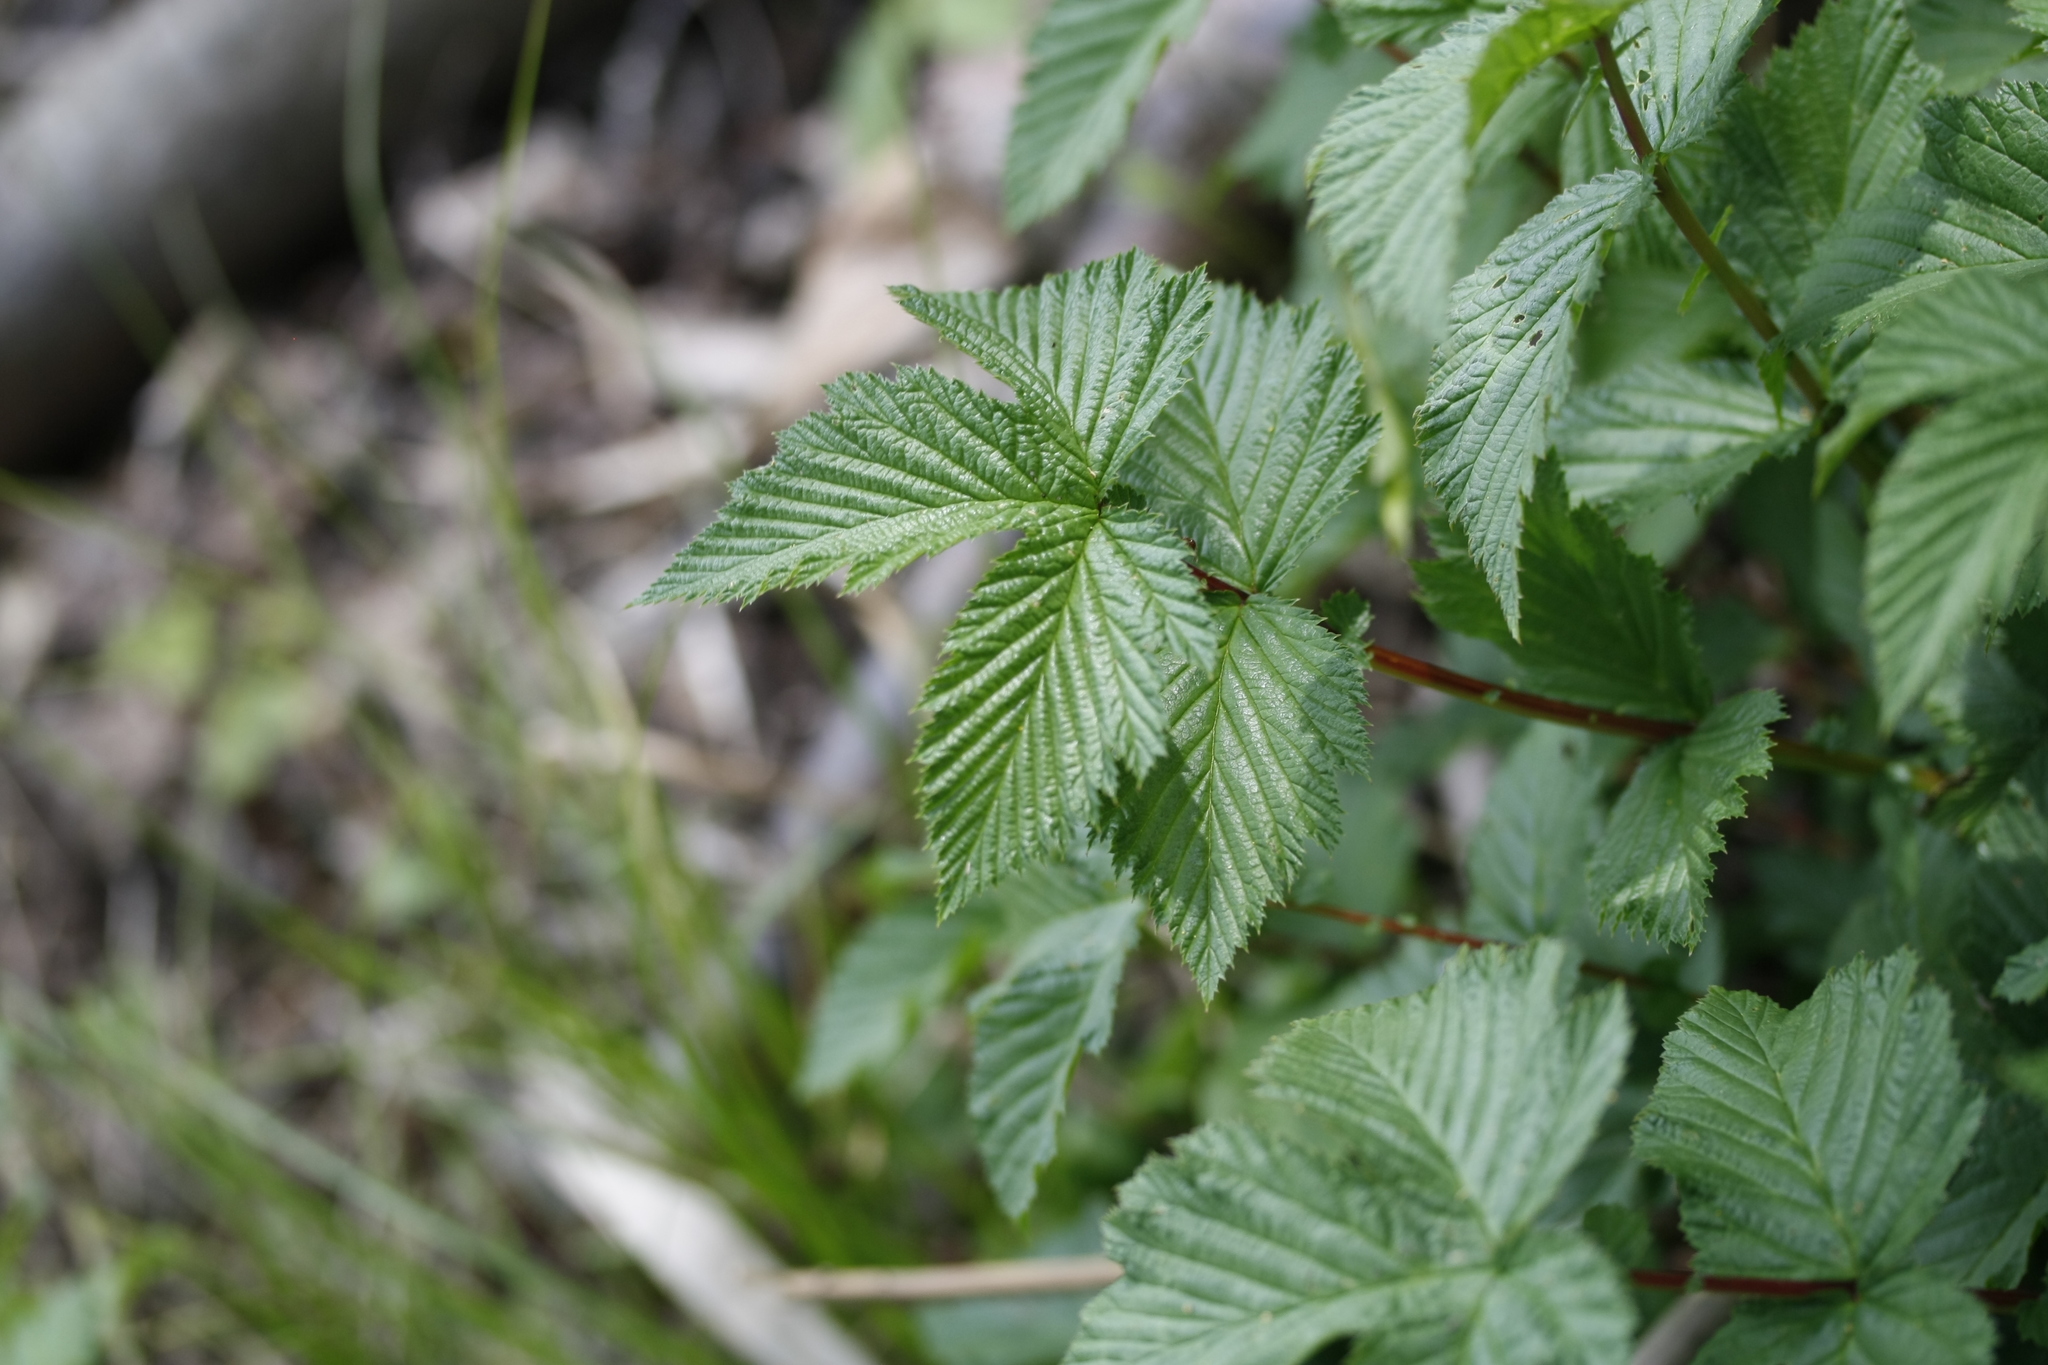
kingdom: Plantae
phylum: Tracheophyta
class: Magnoliopsida
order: Rosales
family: Rosaceae
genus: Filipendula
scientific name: Filipendula ulmaria
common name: Meadowsweet
